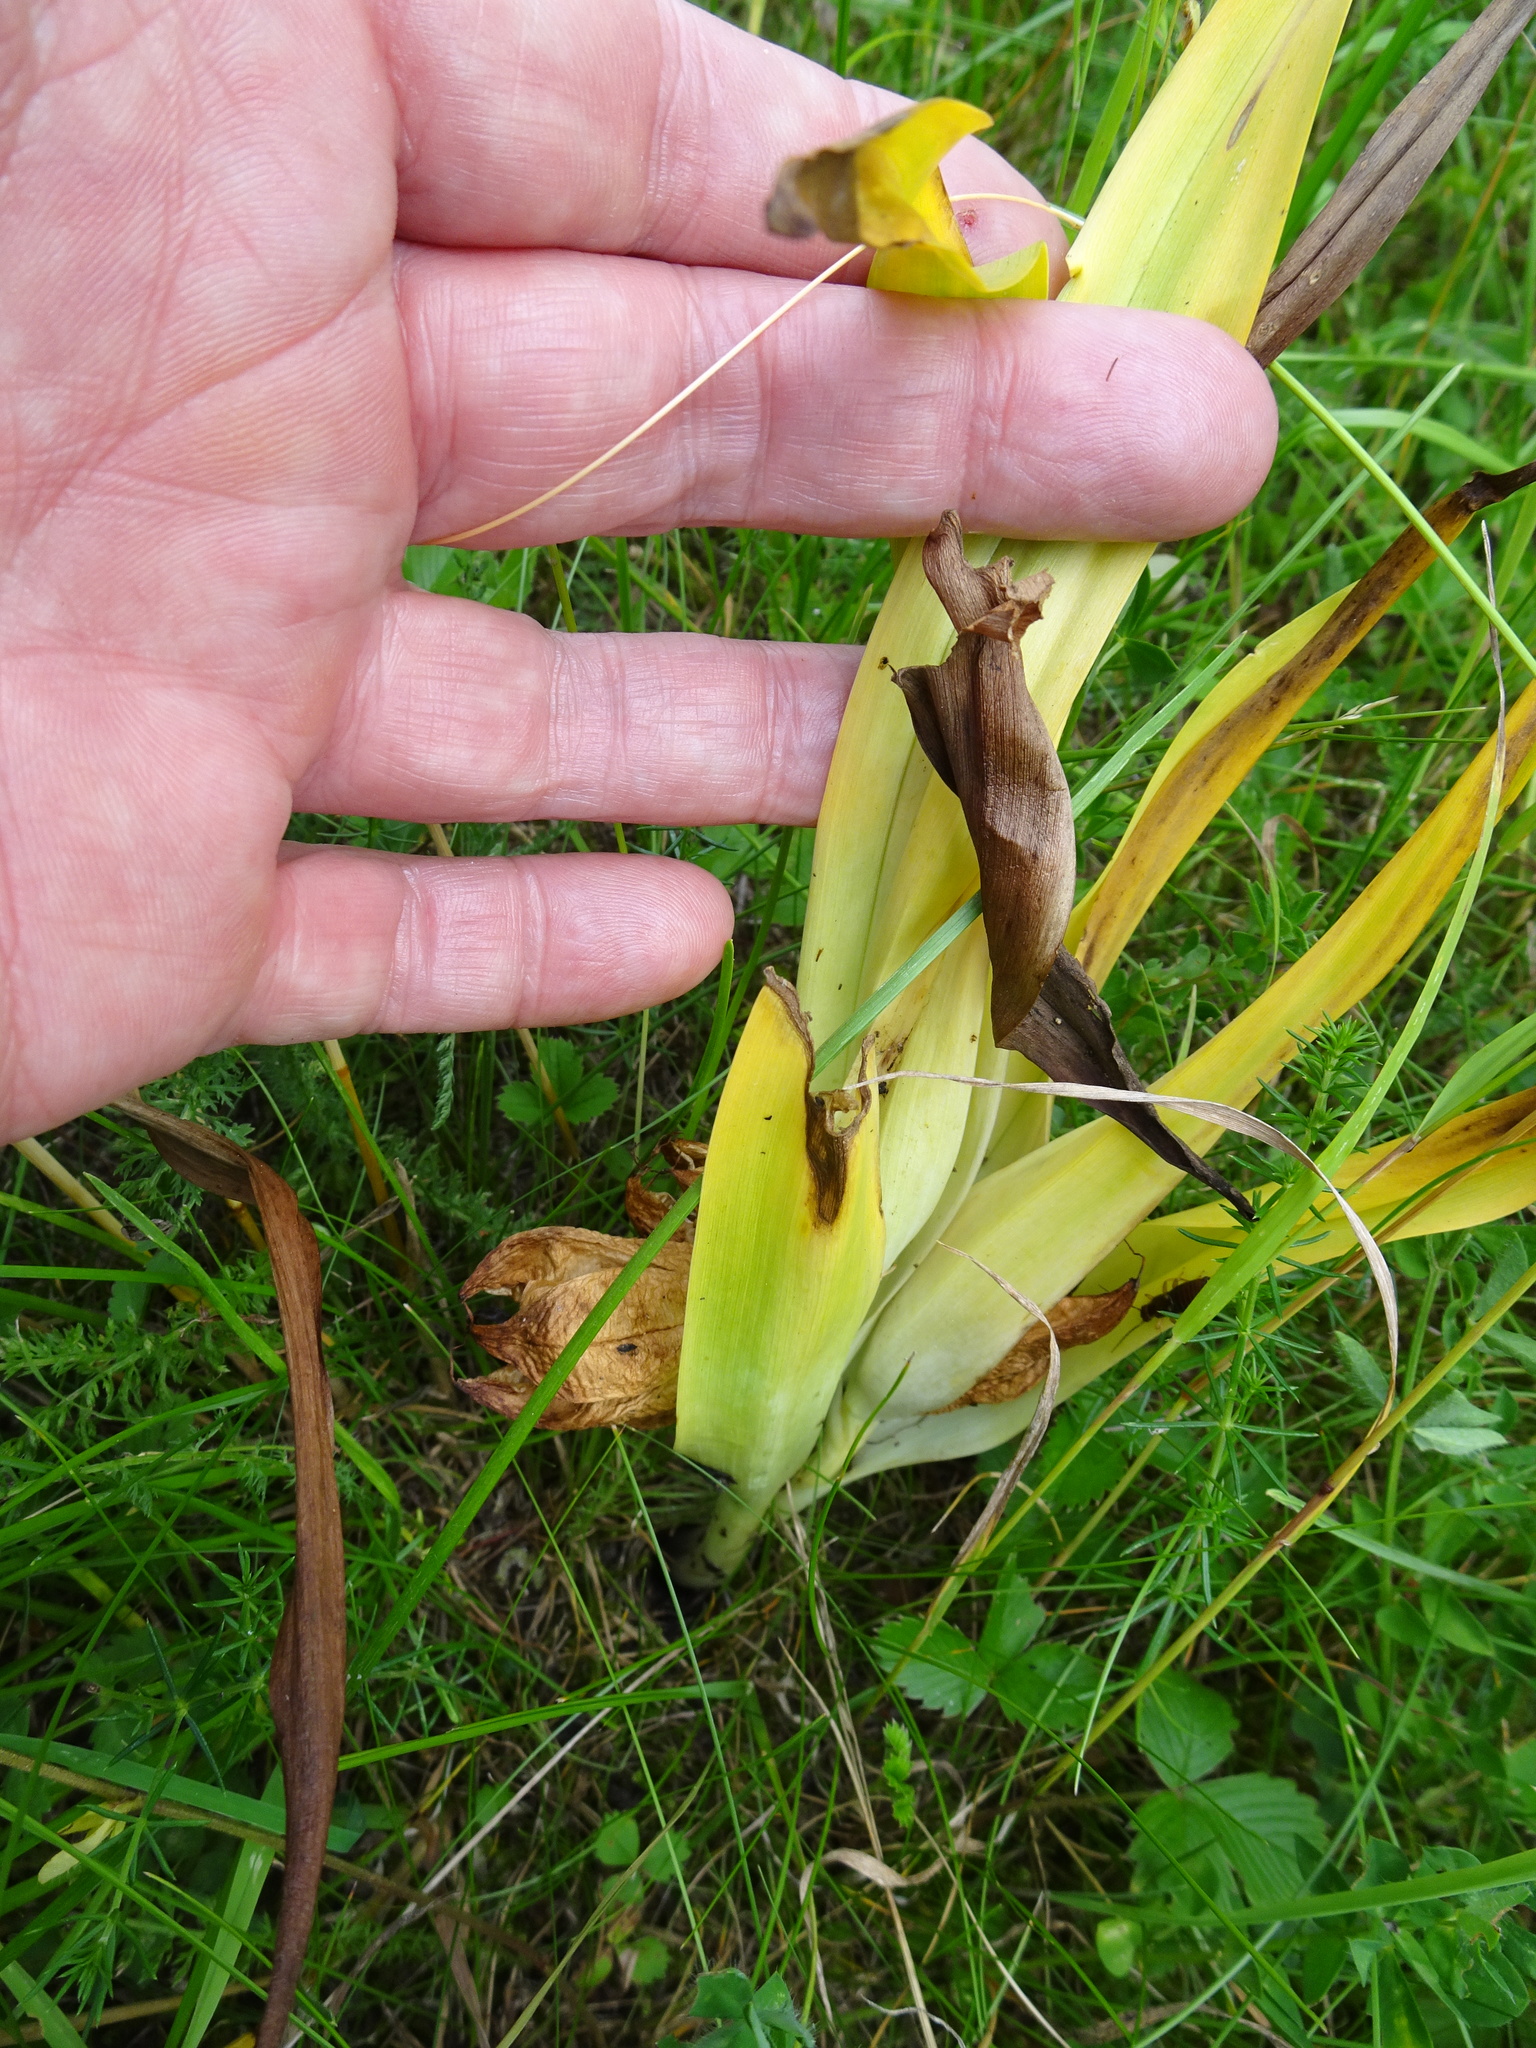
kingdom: Plantae
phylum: Tracheophyta
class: Liliopsida
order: Liliales
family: Colchicaceae
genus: Colchicum
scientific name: Colchicum autumnale
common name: Autumn crocus
